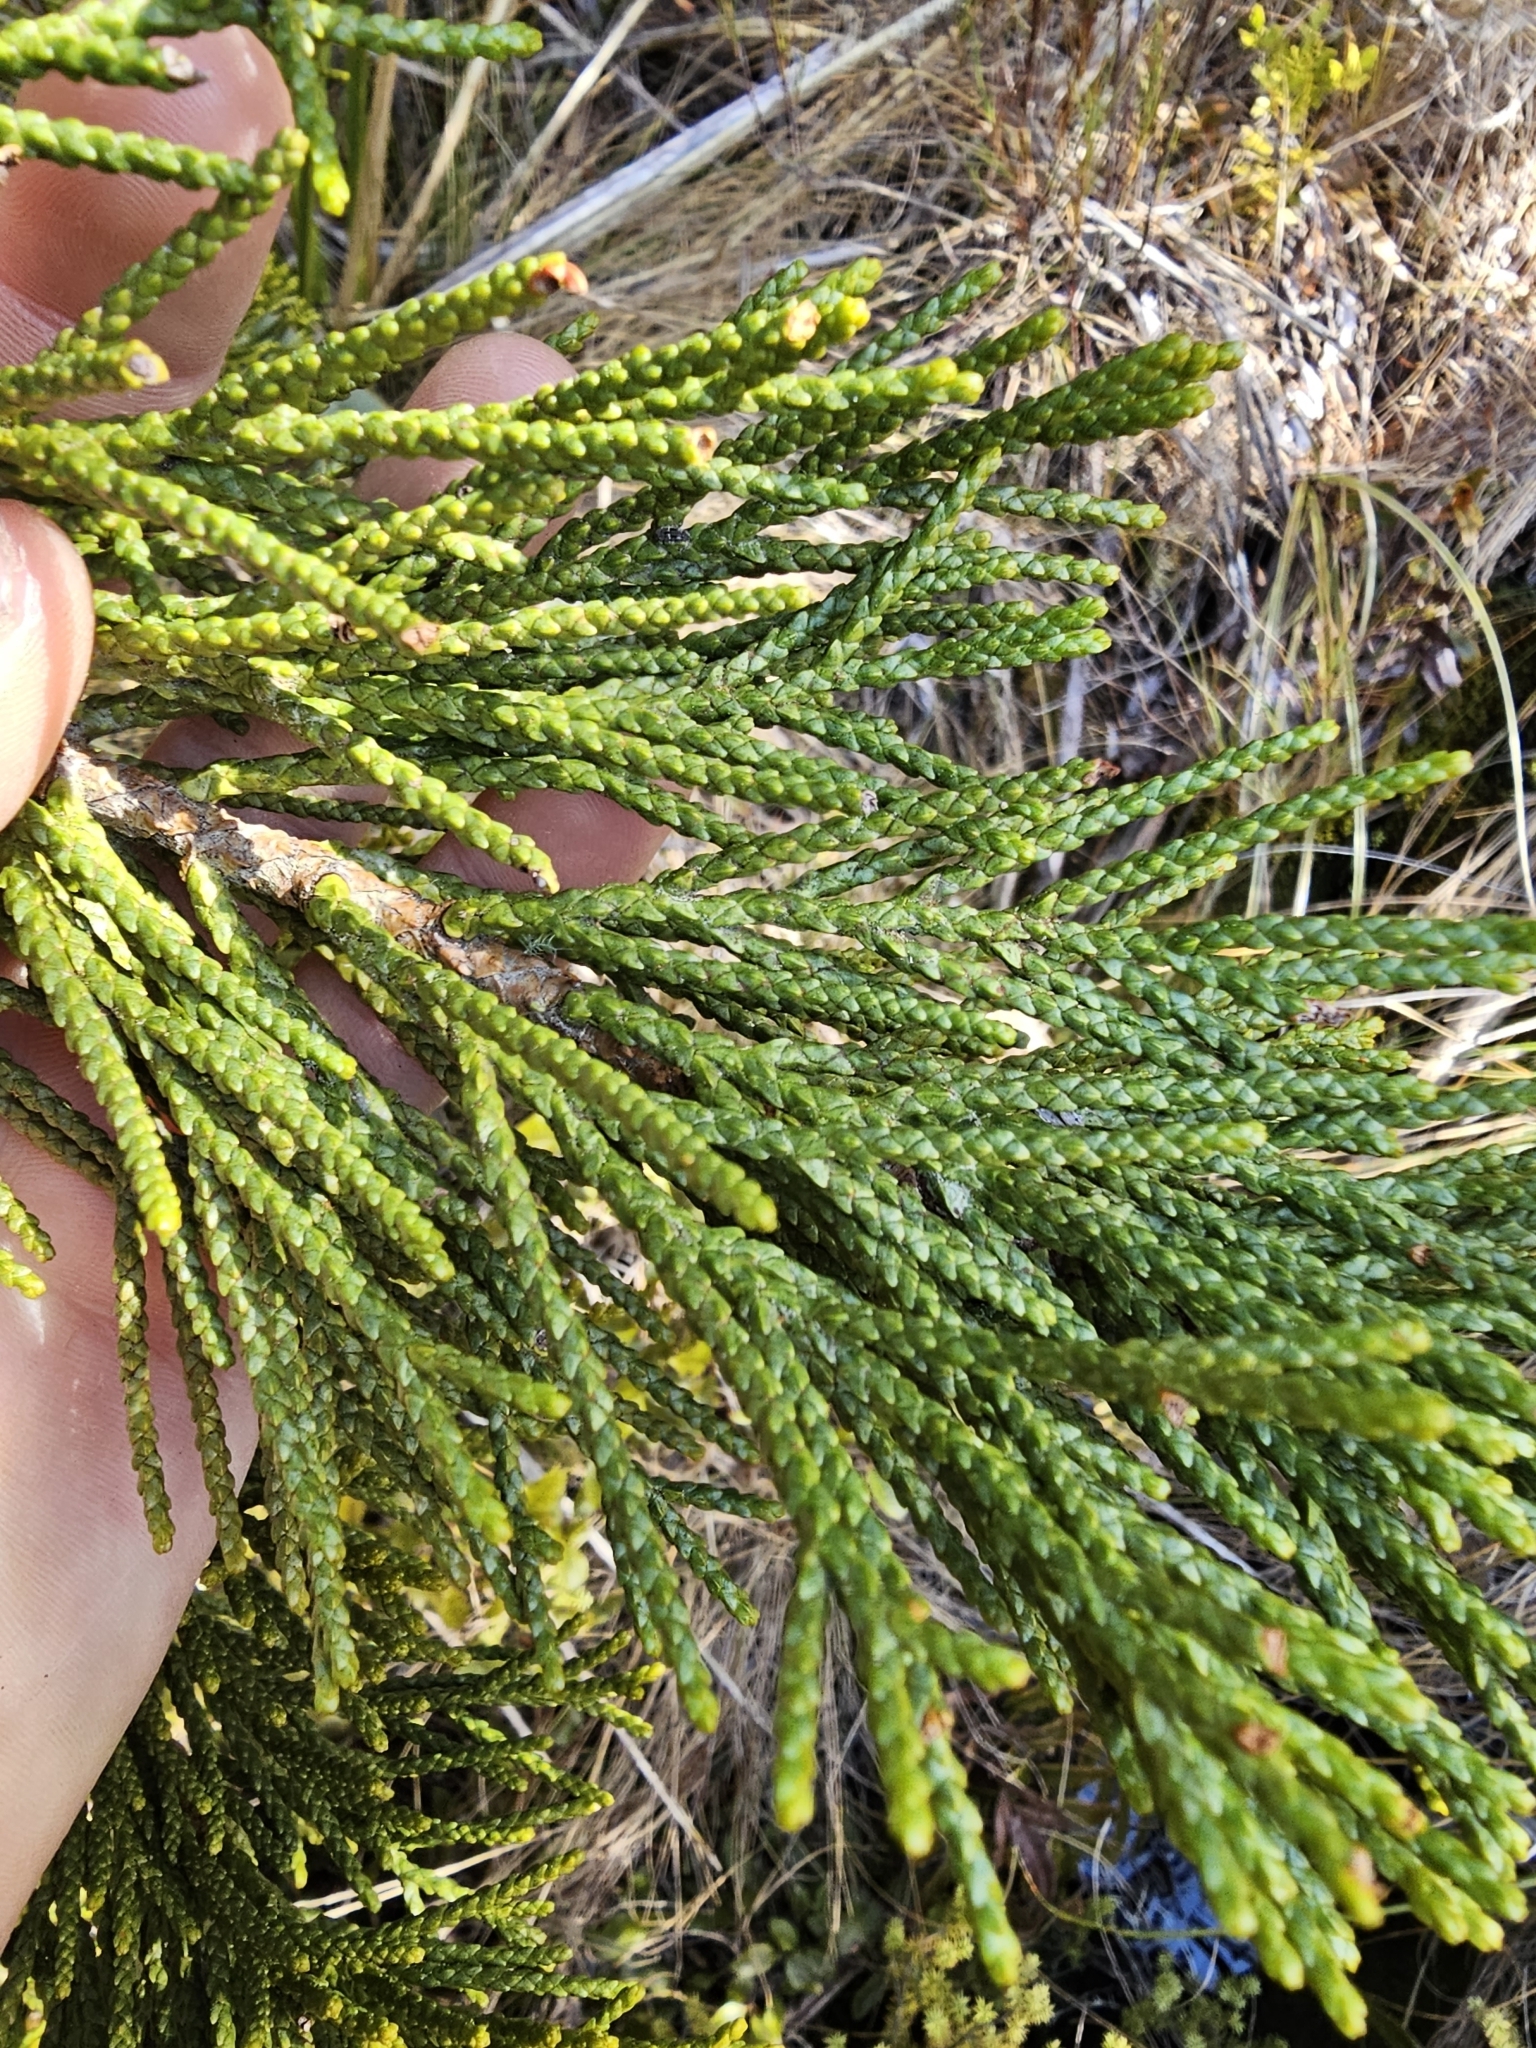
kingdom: Plantae
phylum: Tracheophyta
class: Pinopsida
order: Pinales
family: Podocarpaceae
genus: Halocarpus
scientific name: Halocarpus biformis
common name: Alpine tarwood
